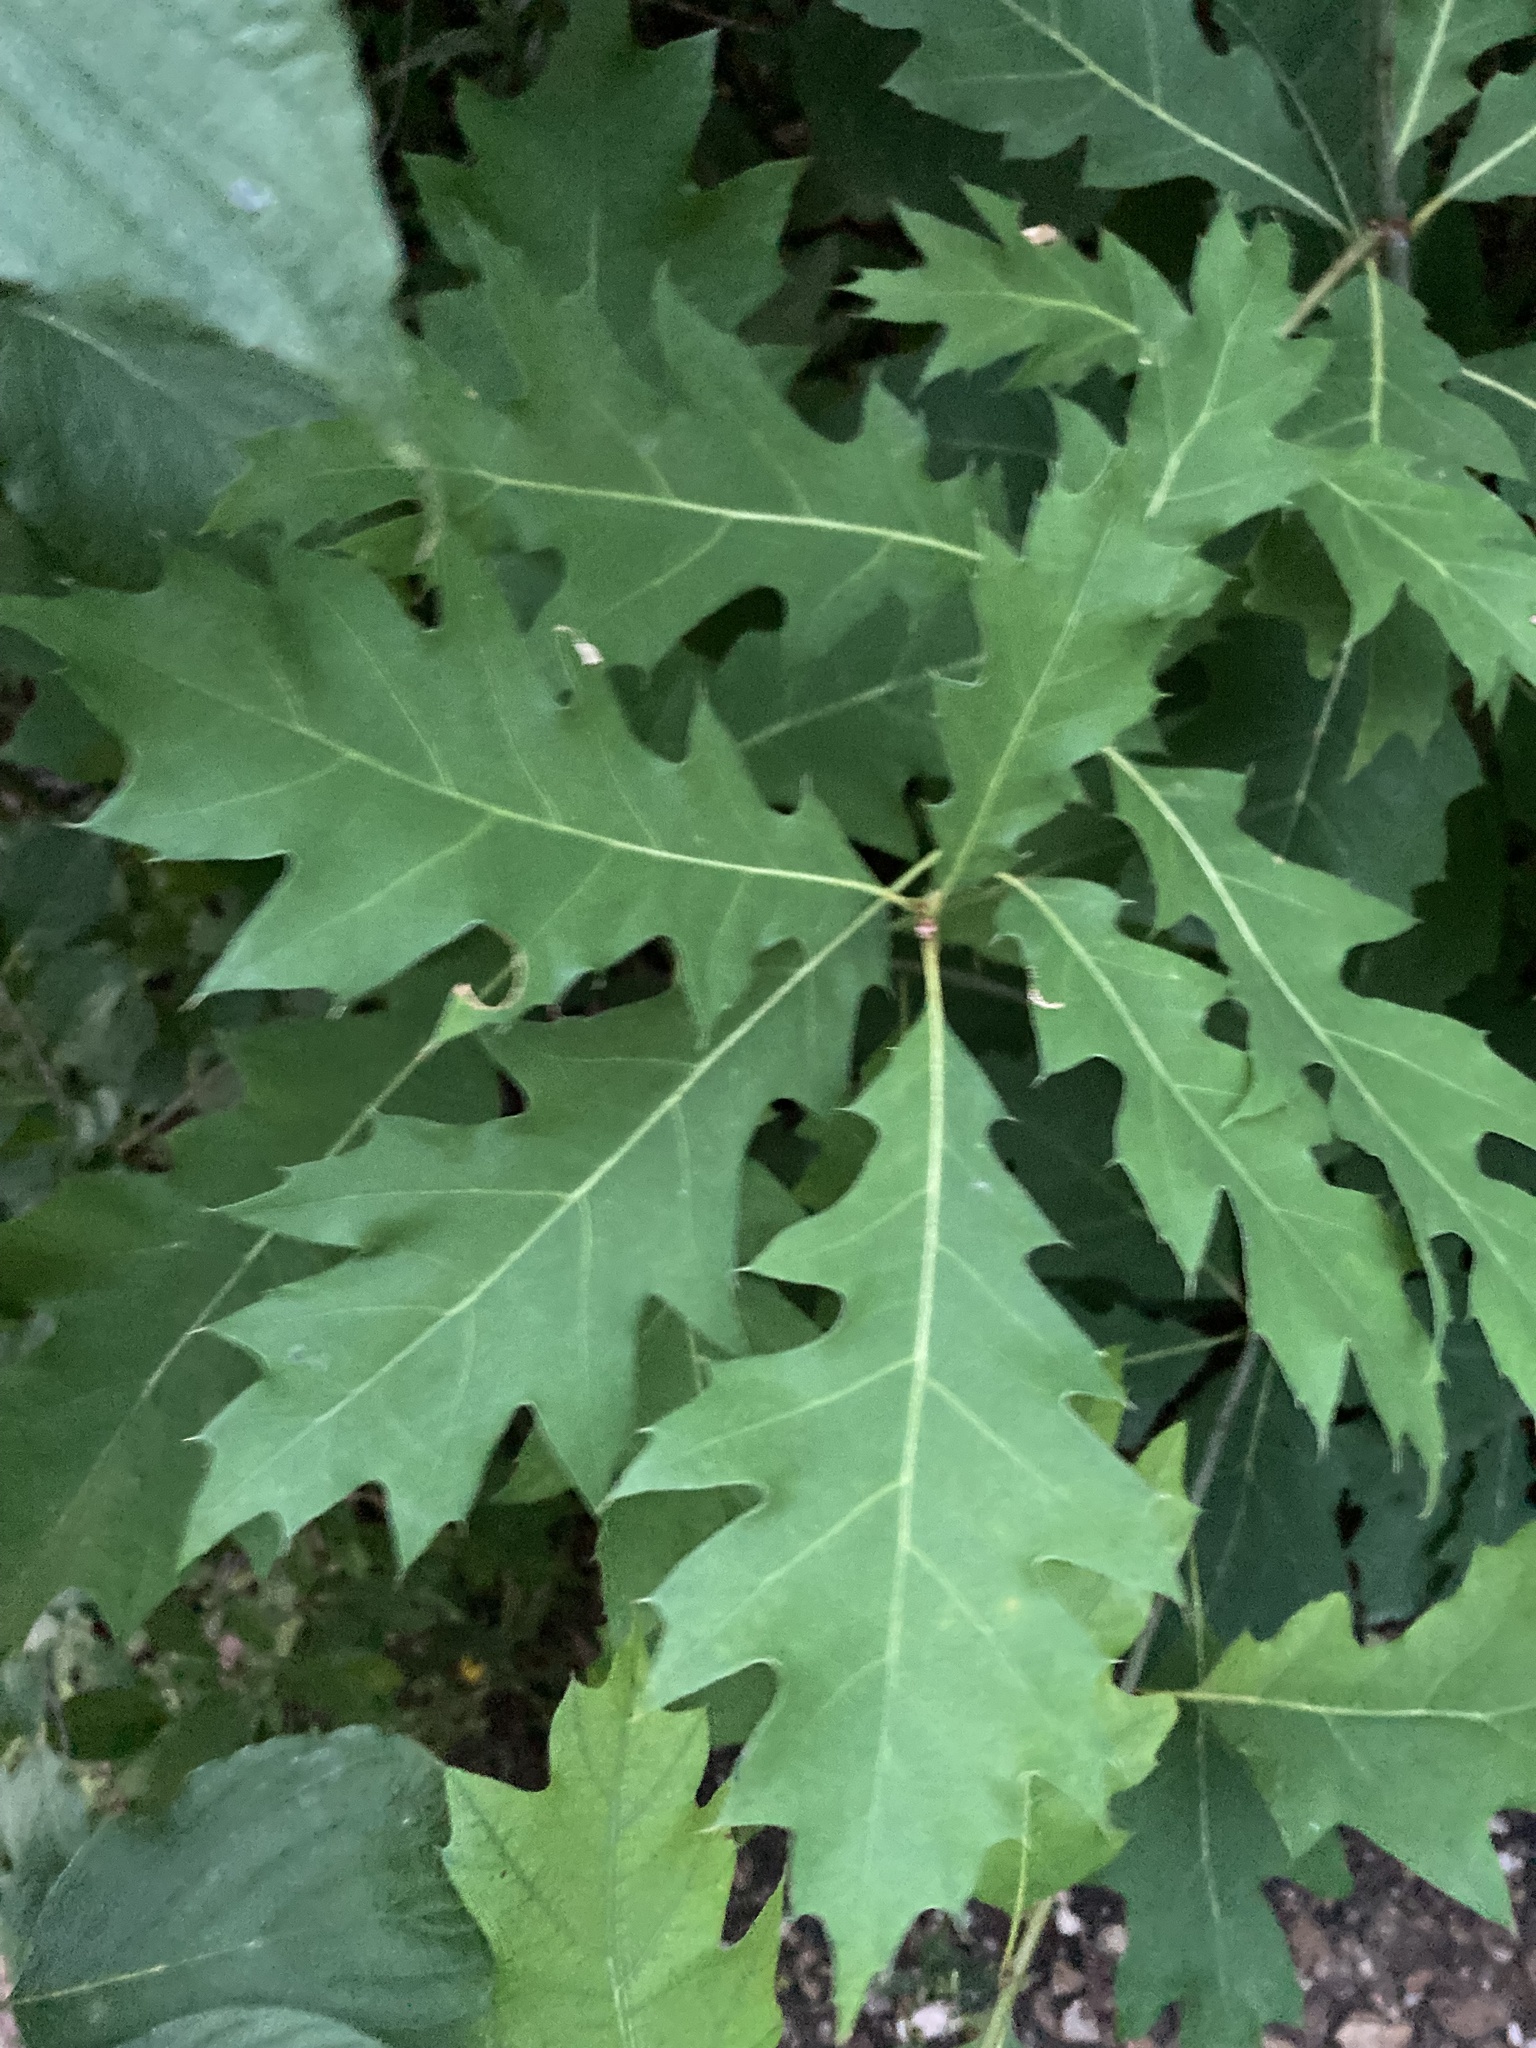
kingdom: Plantae
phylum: Tracheophyta
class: Magnoliopsida
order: Fagales
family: Fagaceae
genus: Quercus
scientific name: Quercus rubra
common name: Red oak
